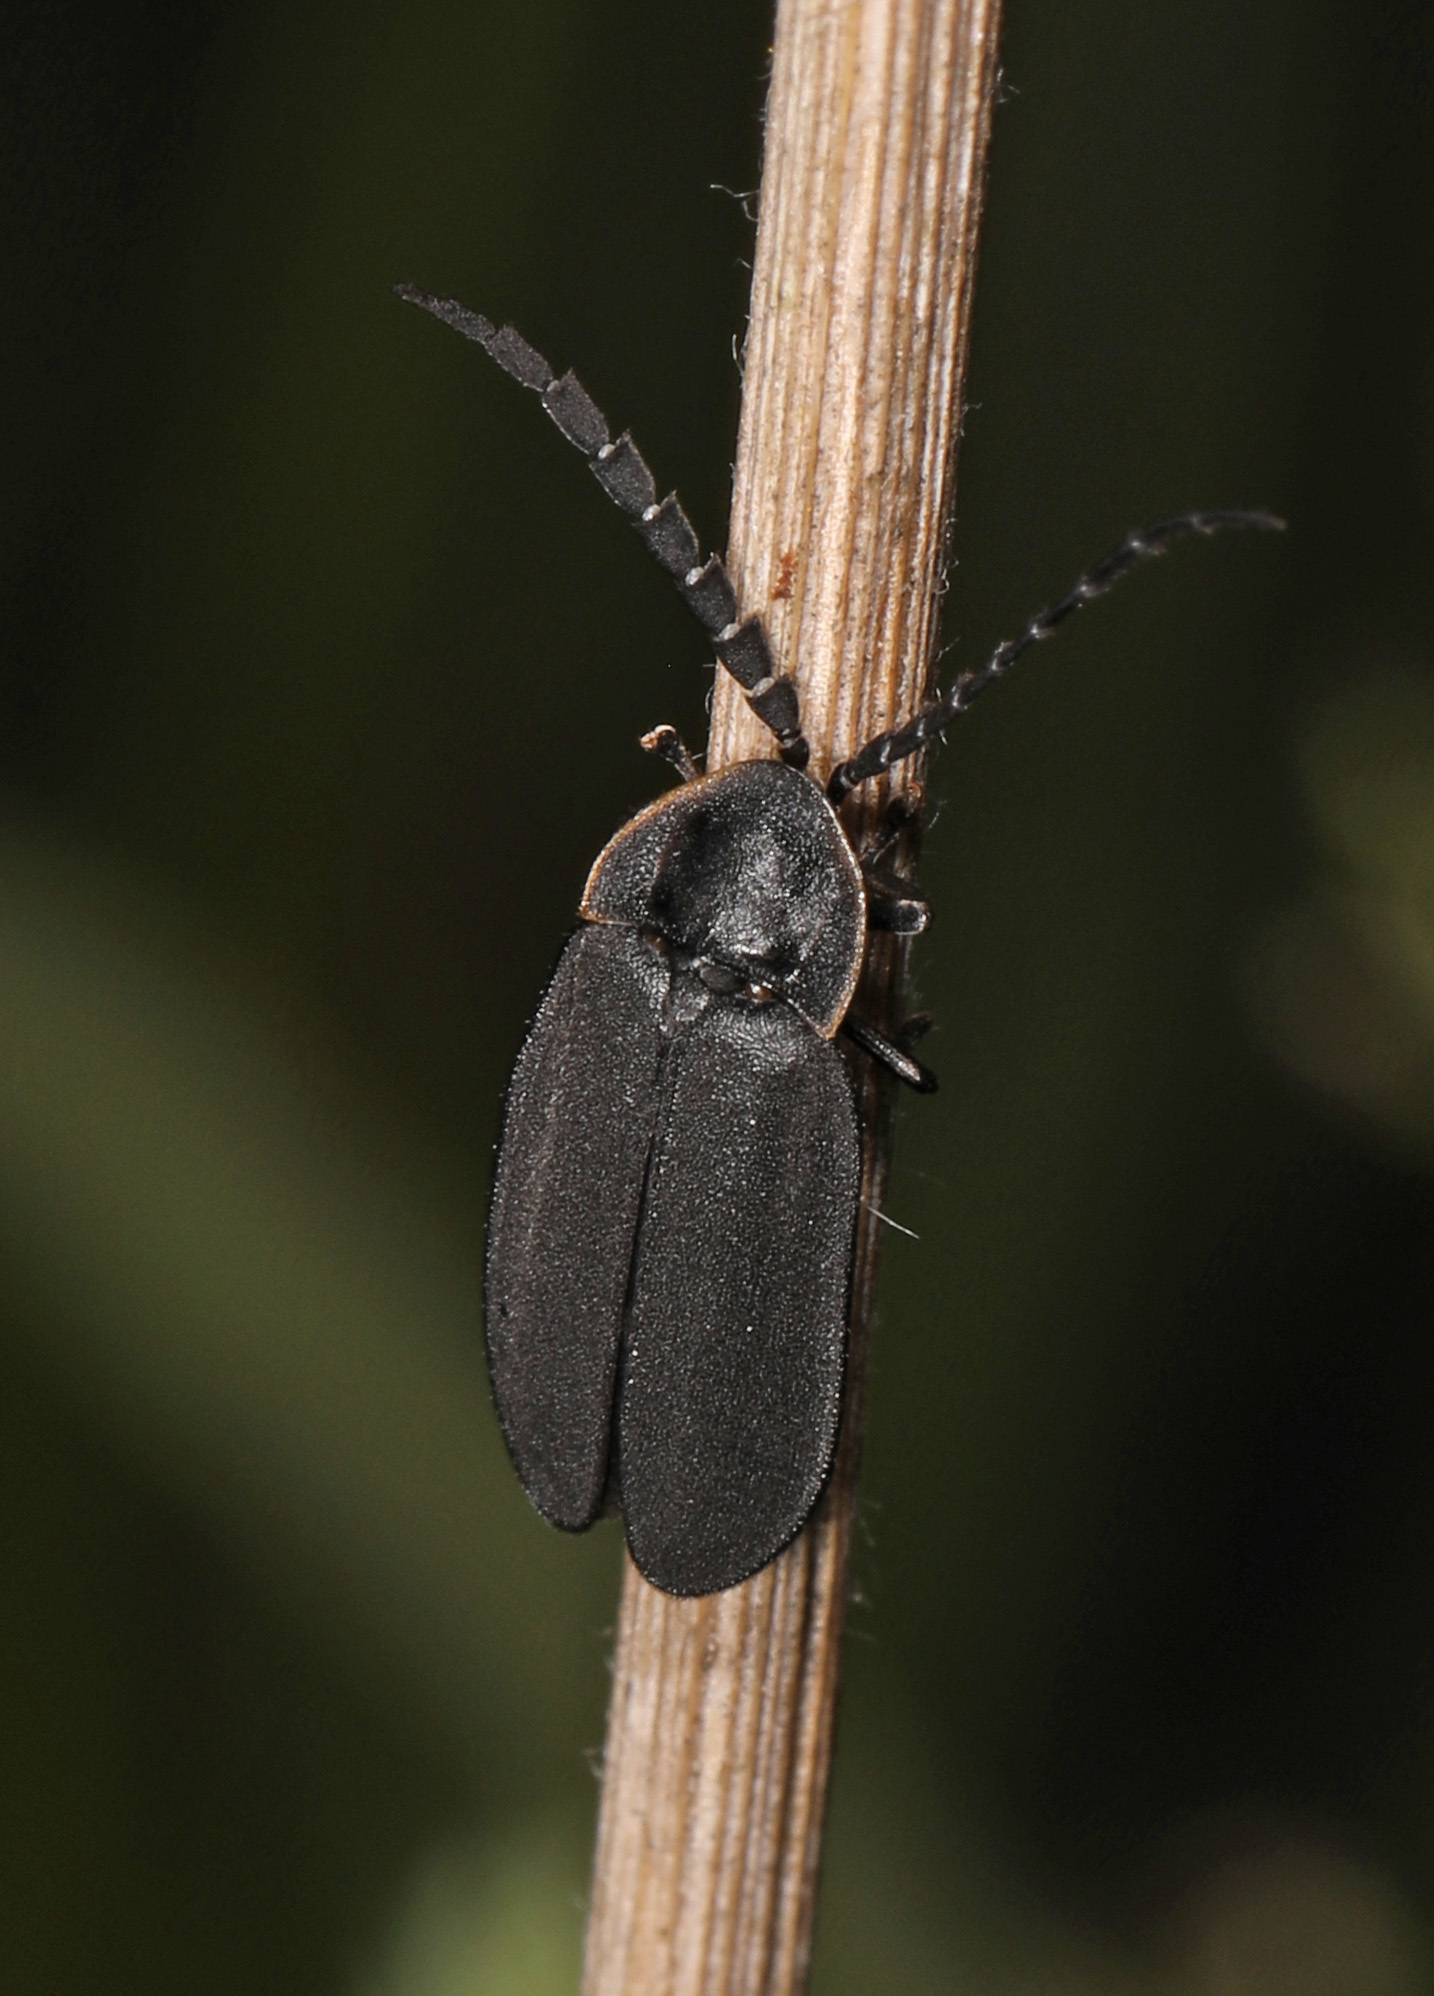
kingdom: Animalia
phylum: Arthropoda
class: Insecta
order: Coleoptera
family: Lampyridae
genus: Lucidota
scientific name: Lucidota atra
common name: Black firefly
